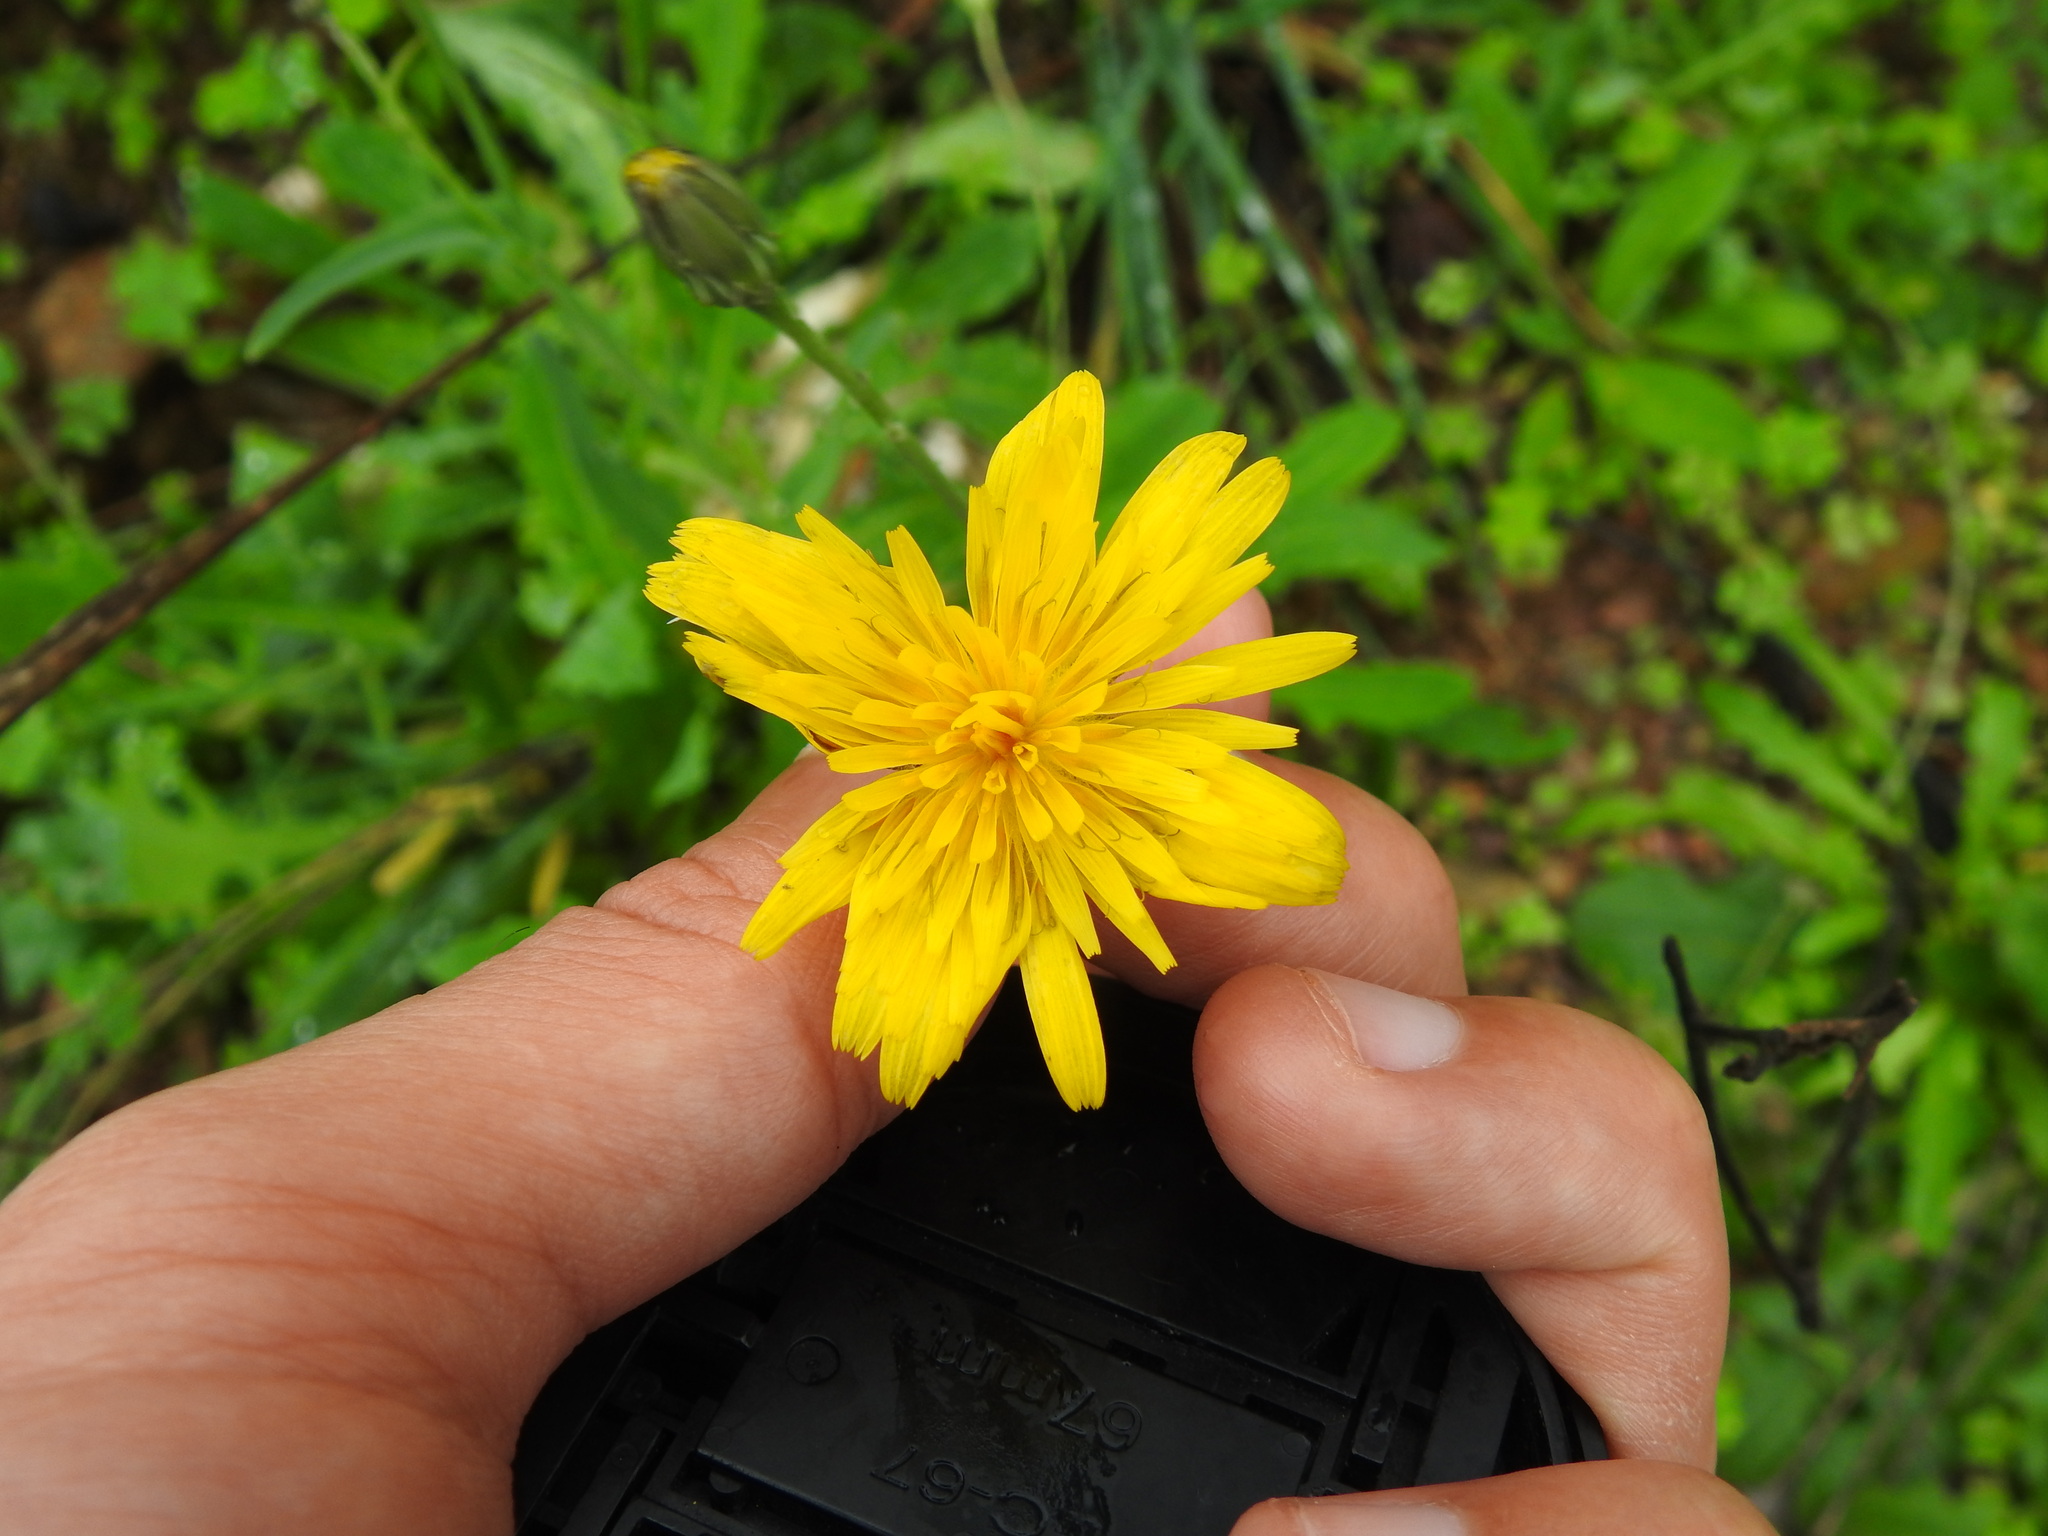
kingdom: Plantae
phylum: Tracheophyta
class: Magnoliopsida
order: Asterales
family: Asteraceae
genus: Reichardia
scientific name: Reichardia picroides
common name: Common brighteyes
